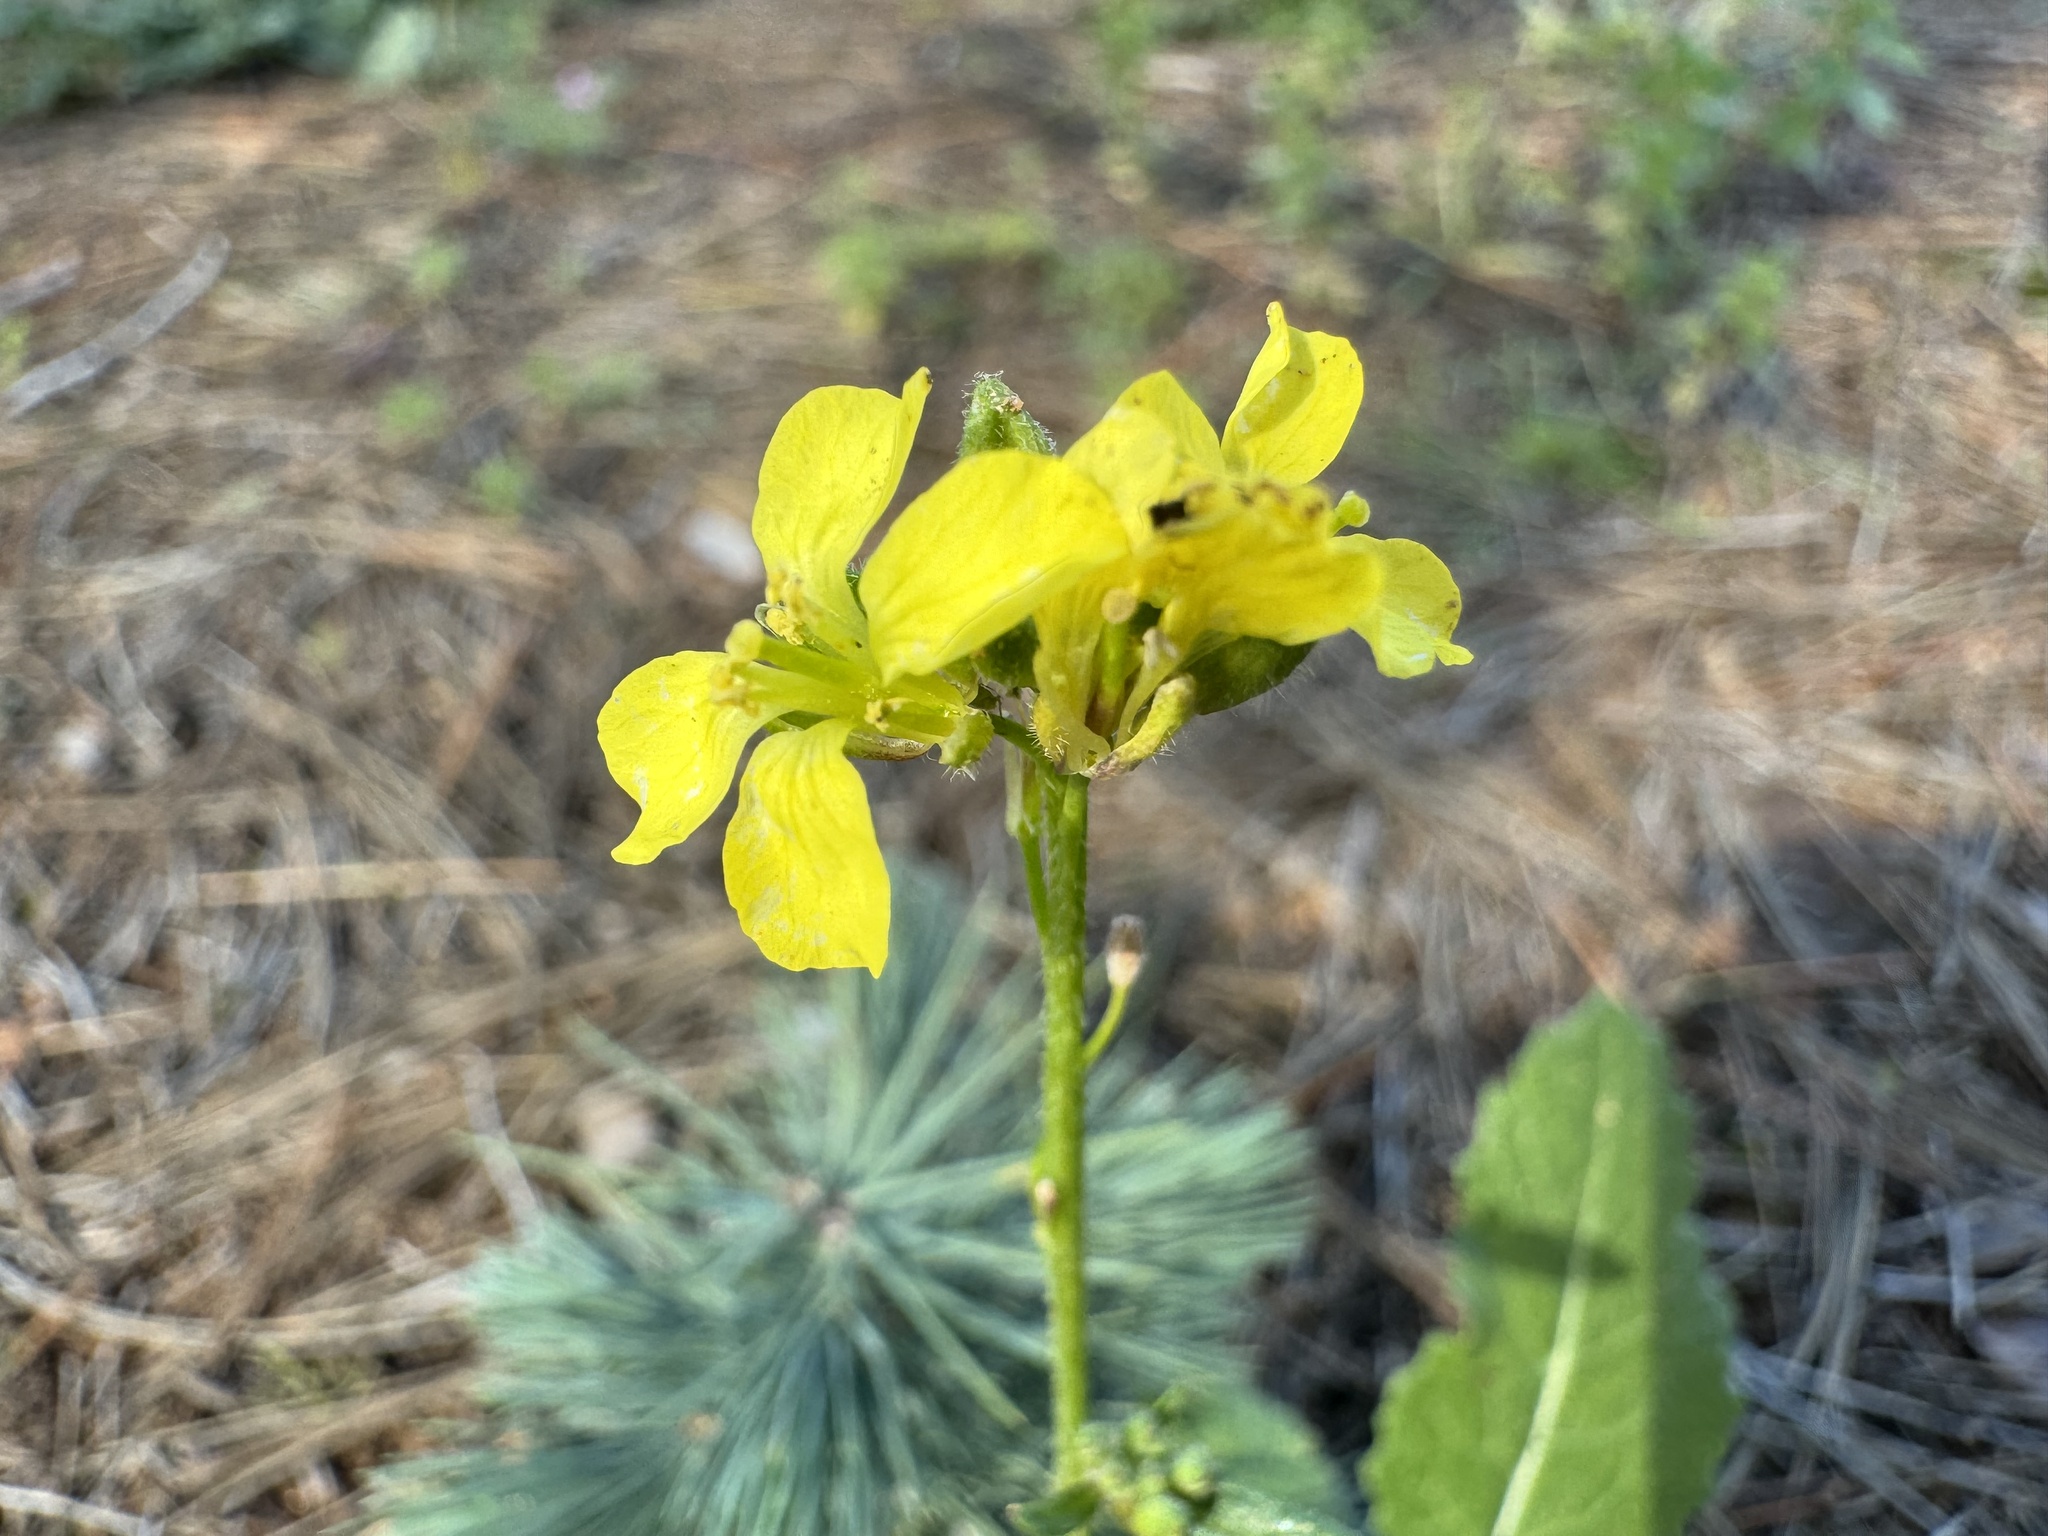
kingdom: Plantae
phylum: Tracheophyta
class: Magnoliopsida
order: Brassicales
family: Brassicaceae
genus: Hirschfeldia
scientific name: Hirschfeldia incana
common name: Hoary mustard
